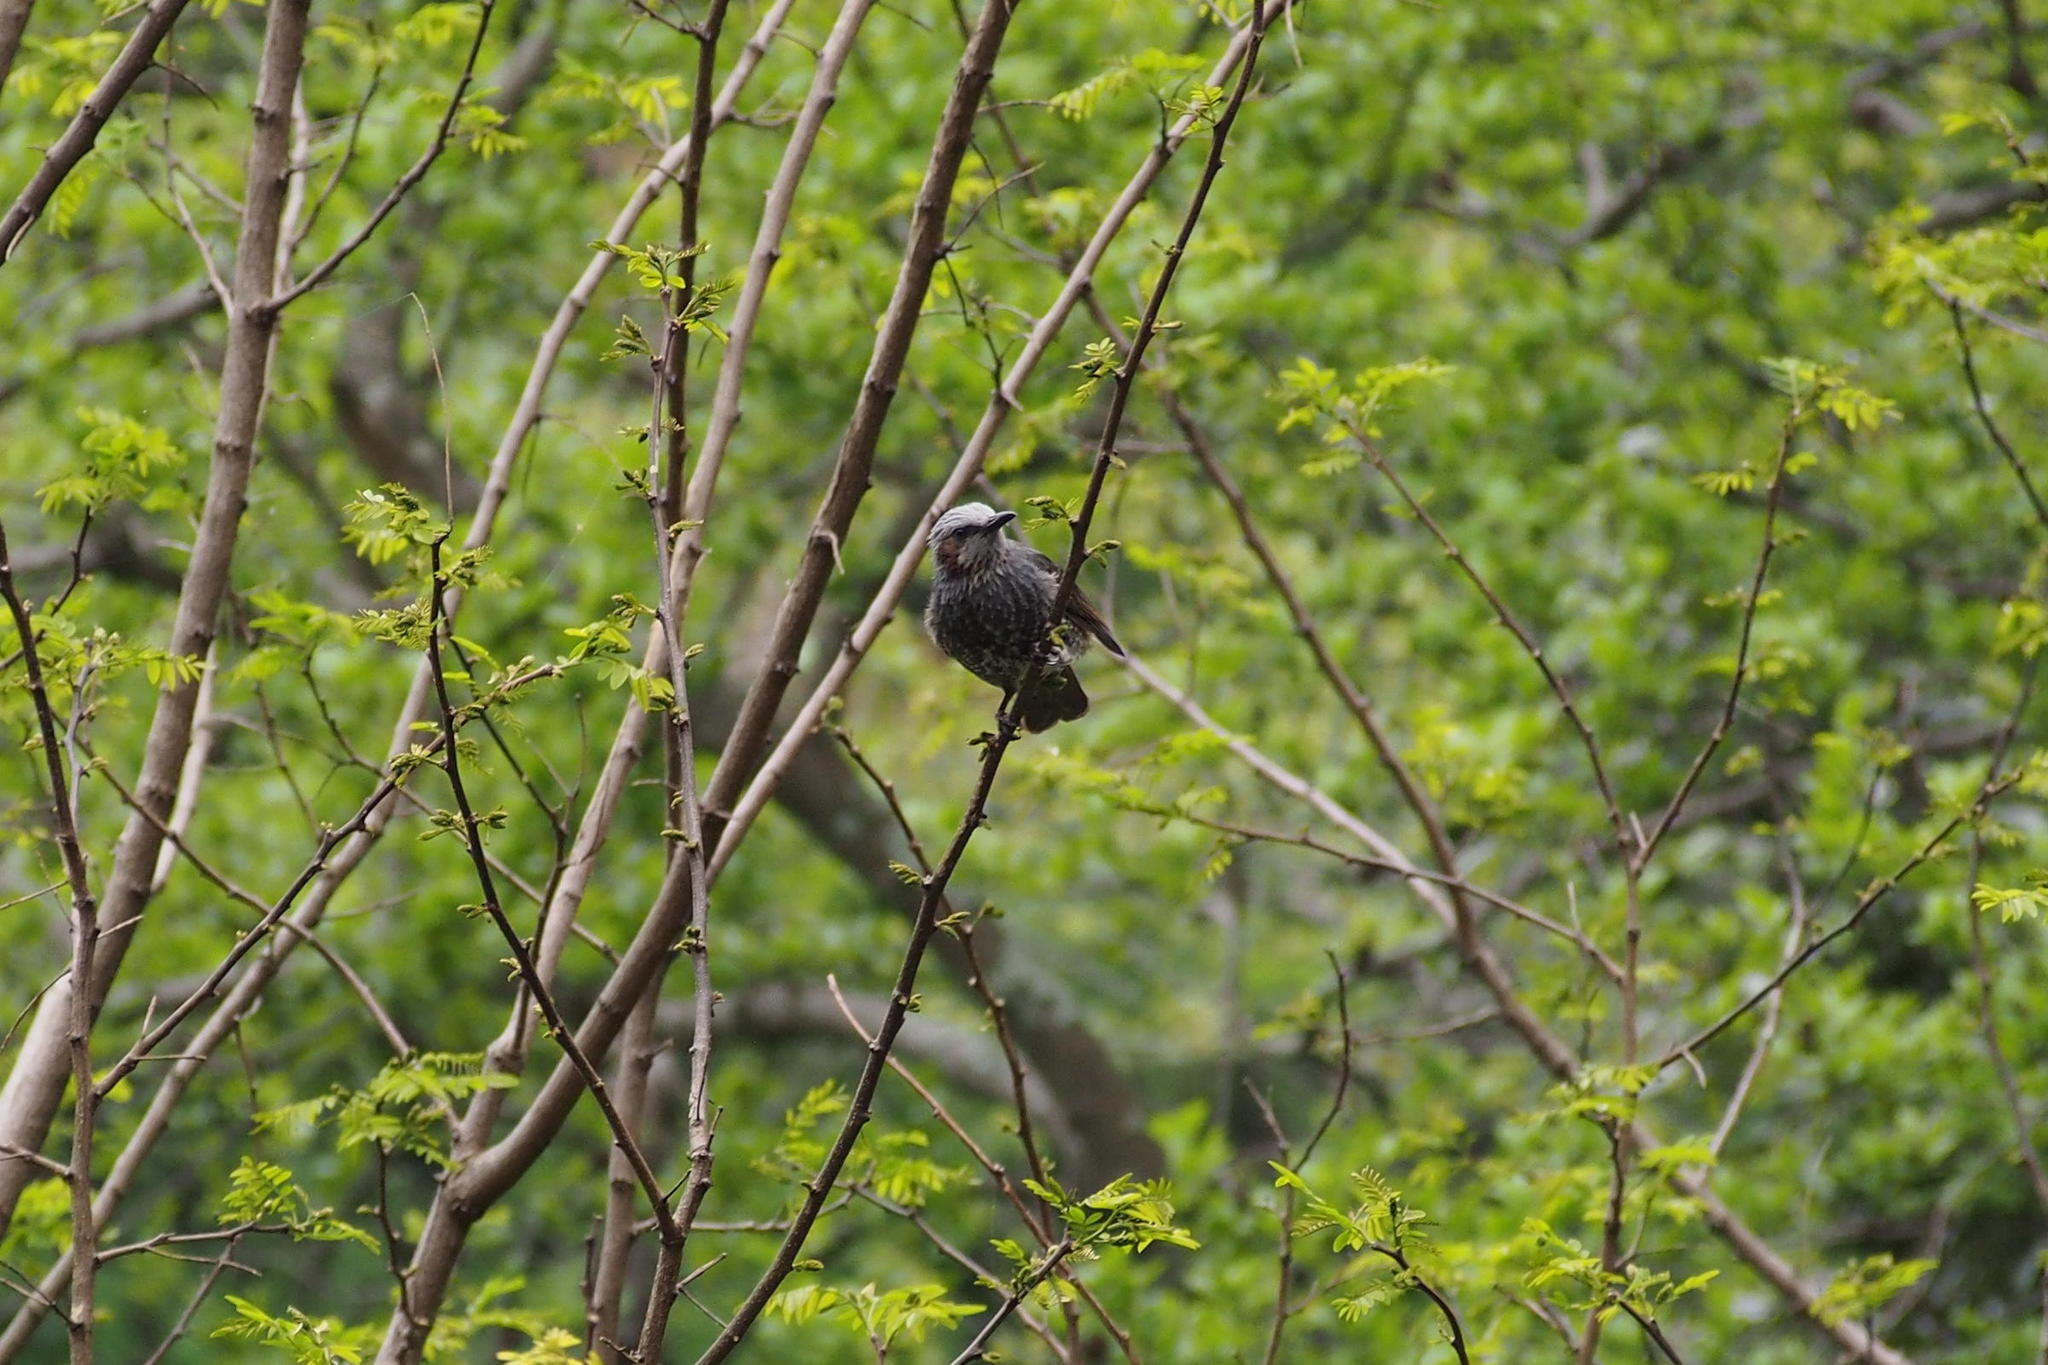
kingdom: Animalia
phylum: Chordata
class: Aves
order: Passeriformes
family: Pycnonotidae
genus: Hypsipetes
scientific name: Hypsipetes amaurotis
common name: Brown-eared bulbul
